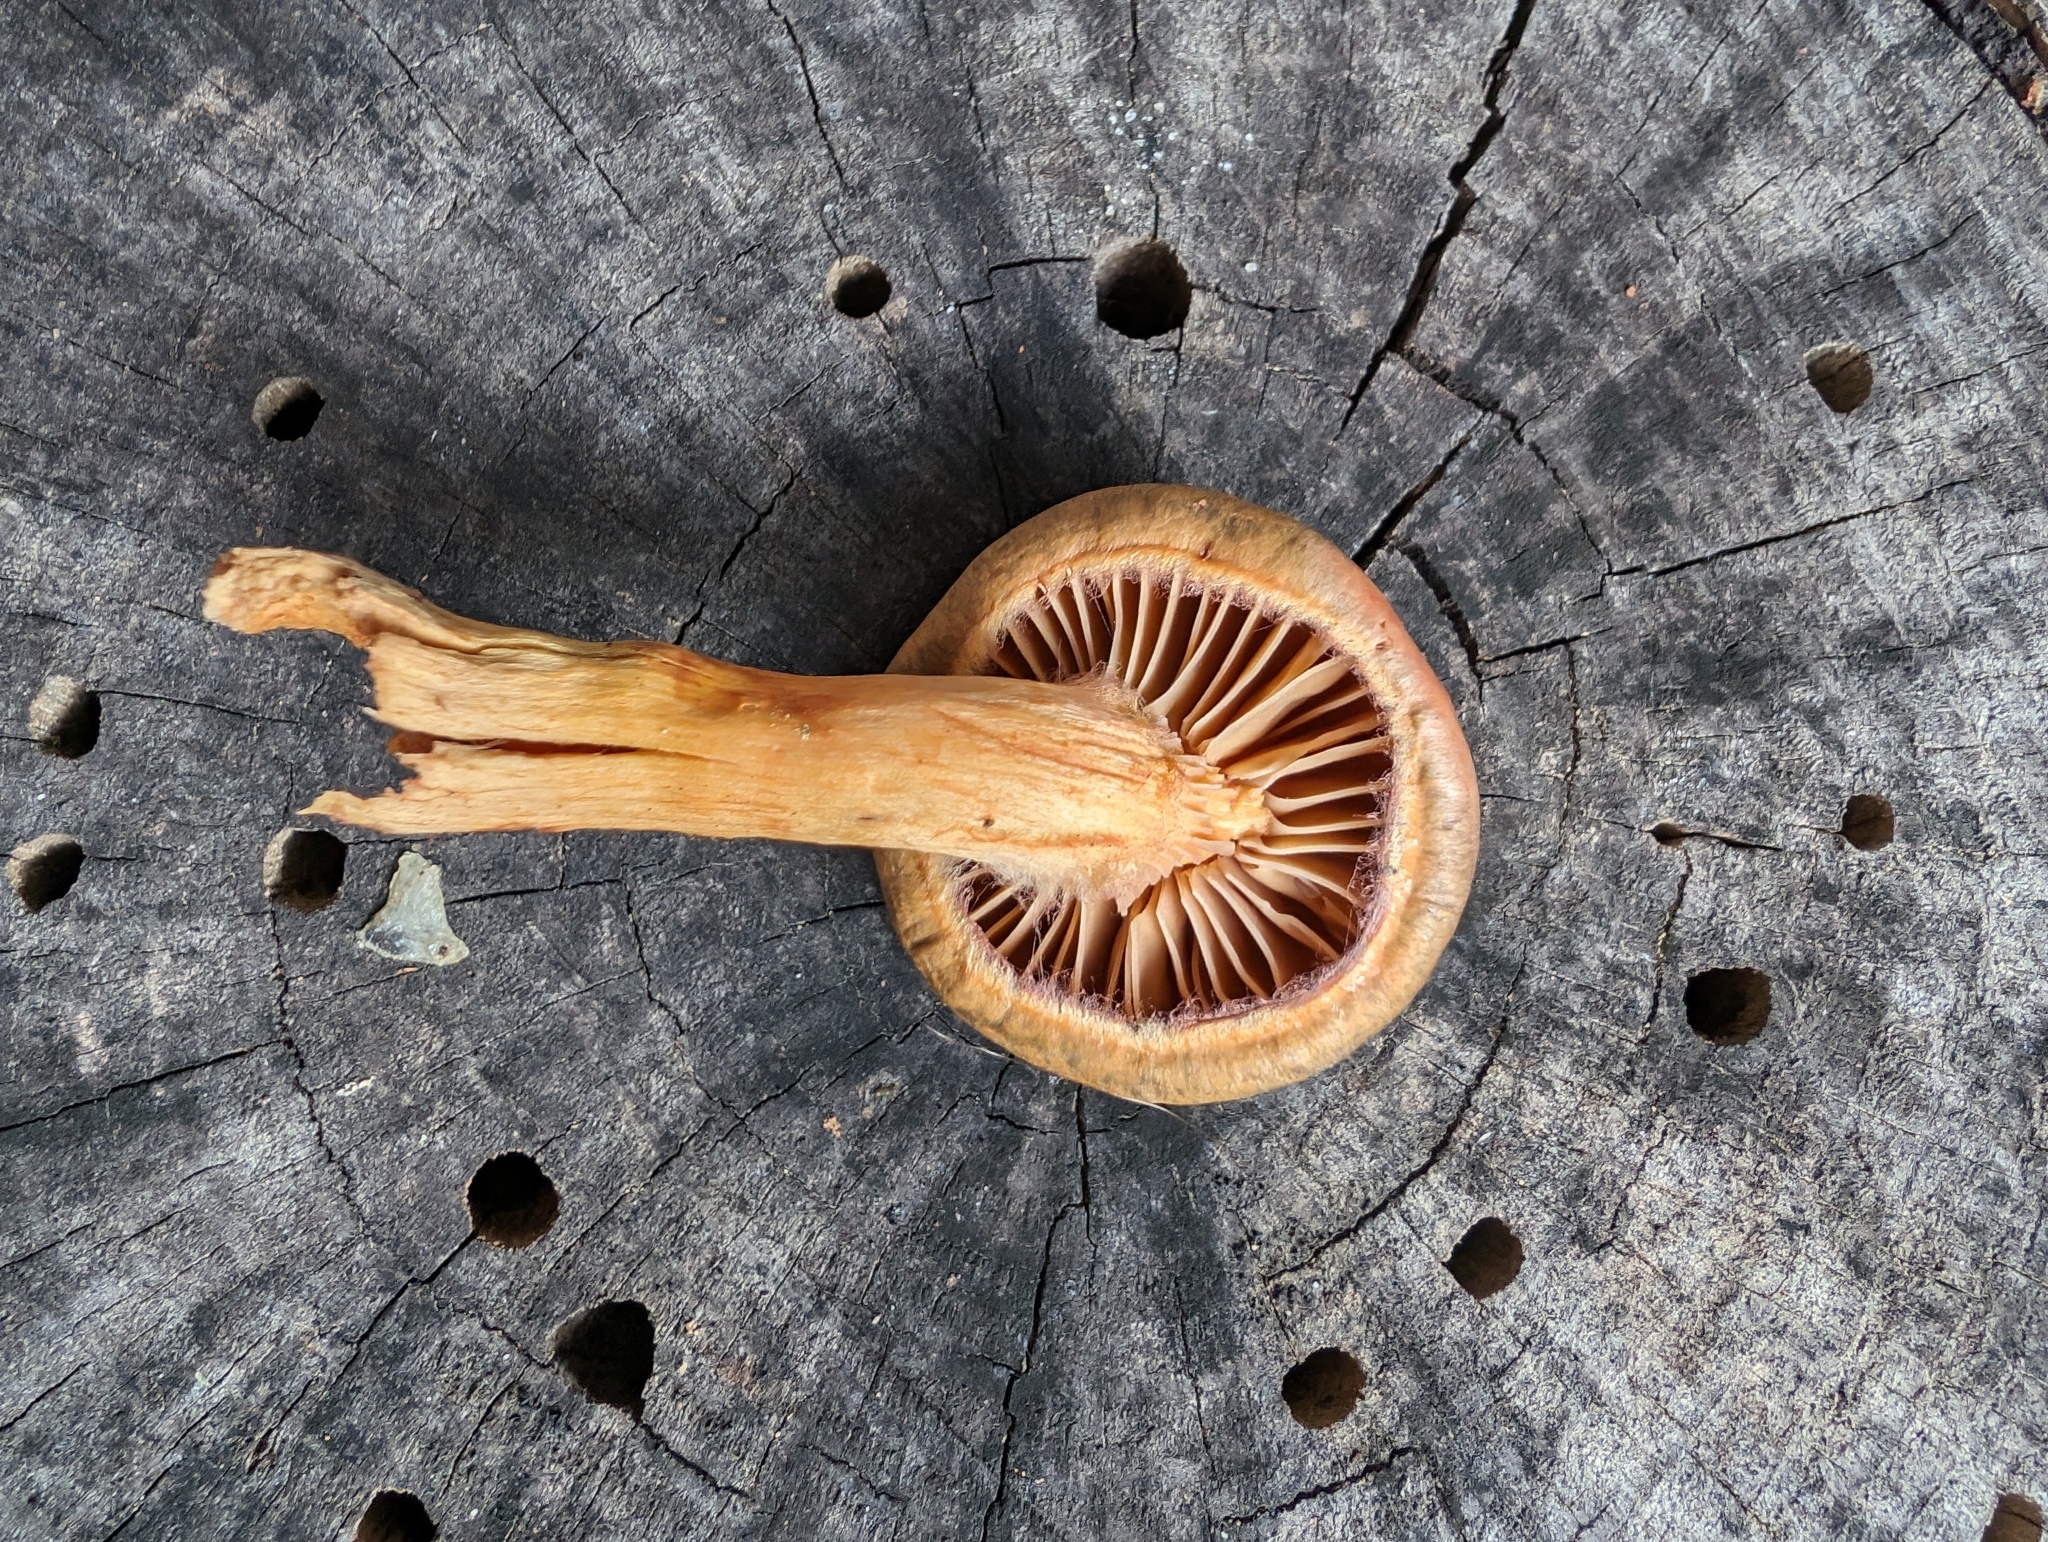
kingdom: Fungi
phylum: Basidiomycota
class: Agaricomycetes
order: Boletales
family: Gomphidiaceae
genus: Chroogomphus
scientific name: Chroogomphus ochraceus
